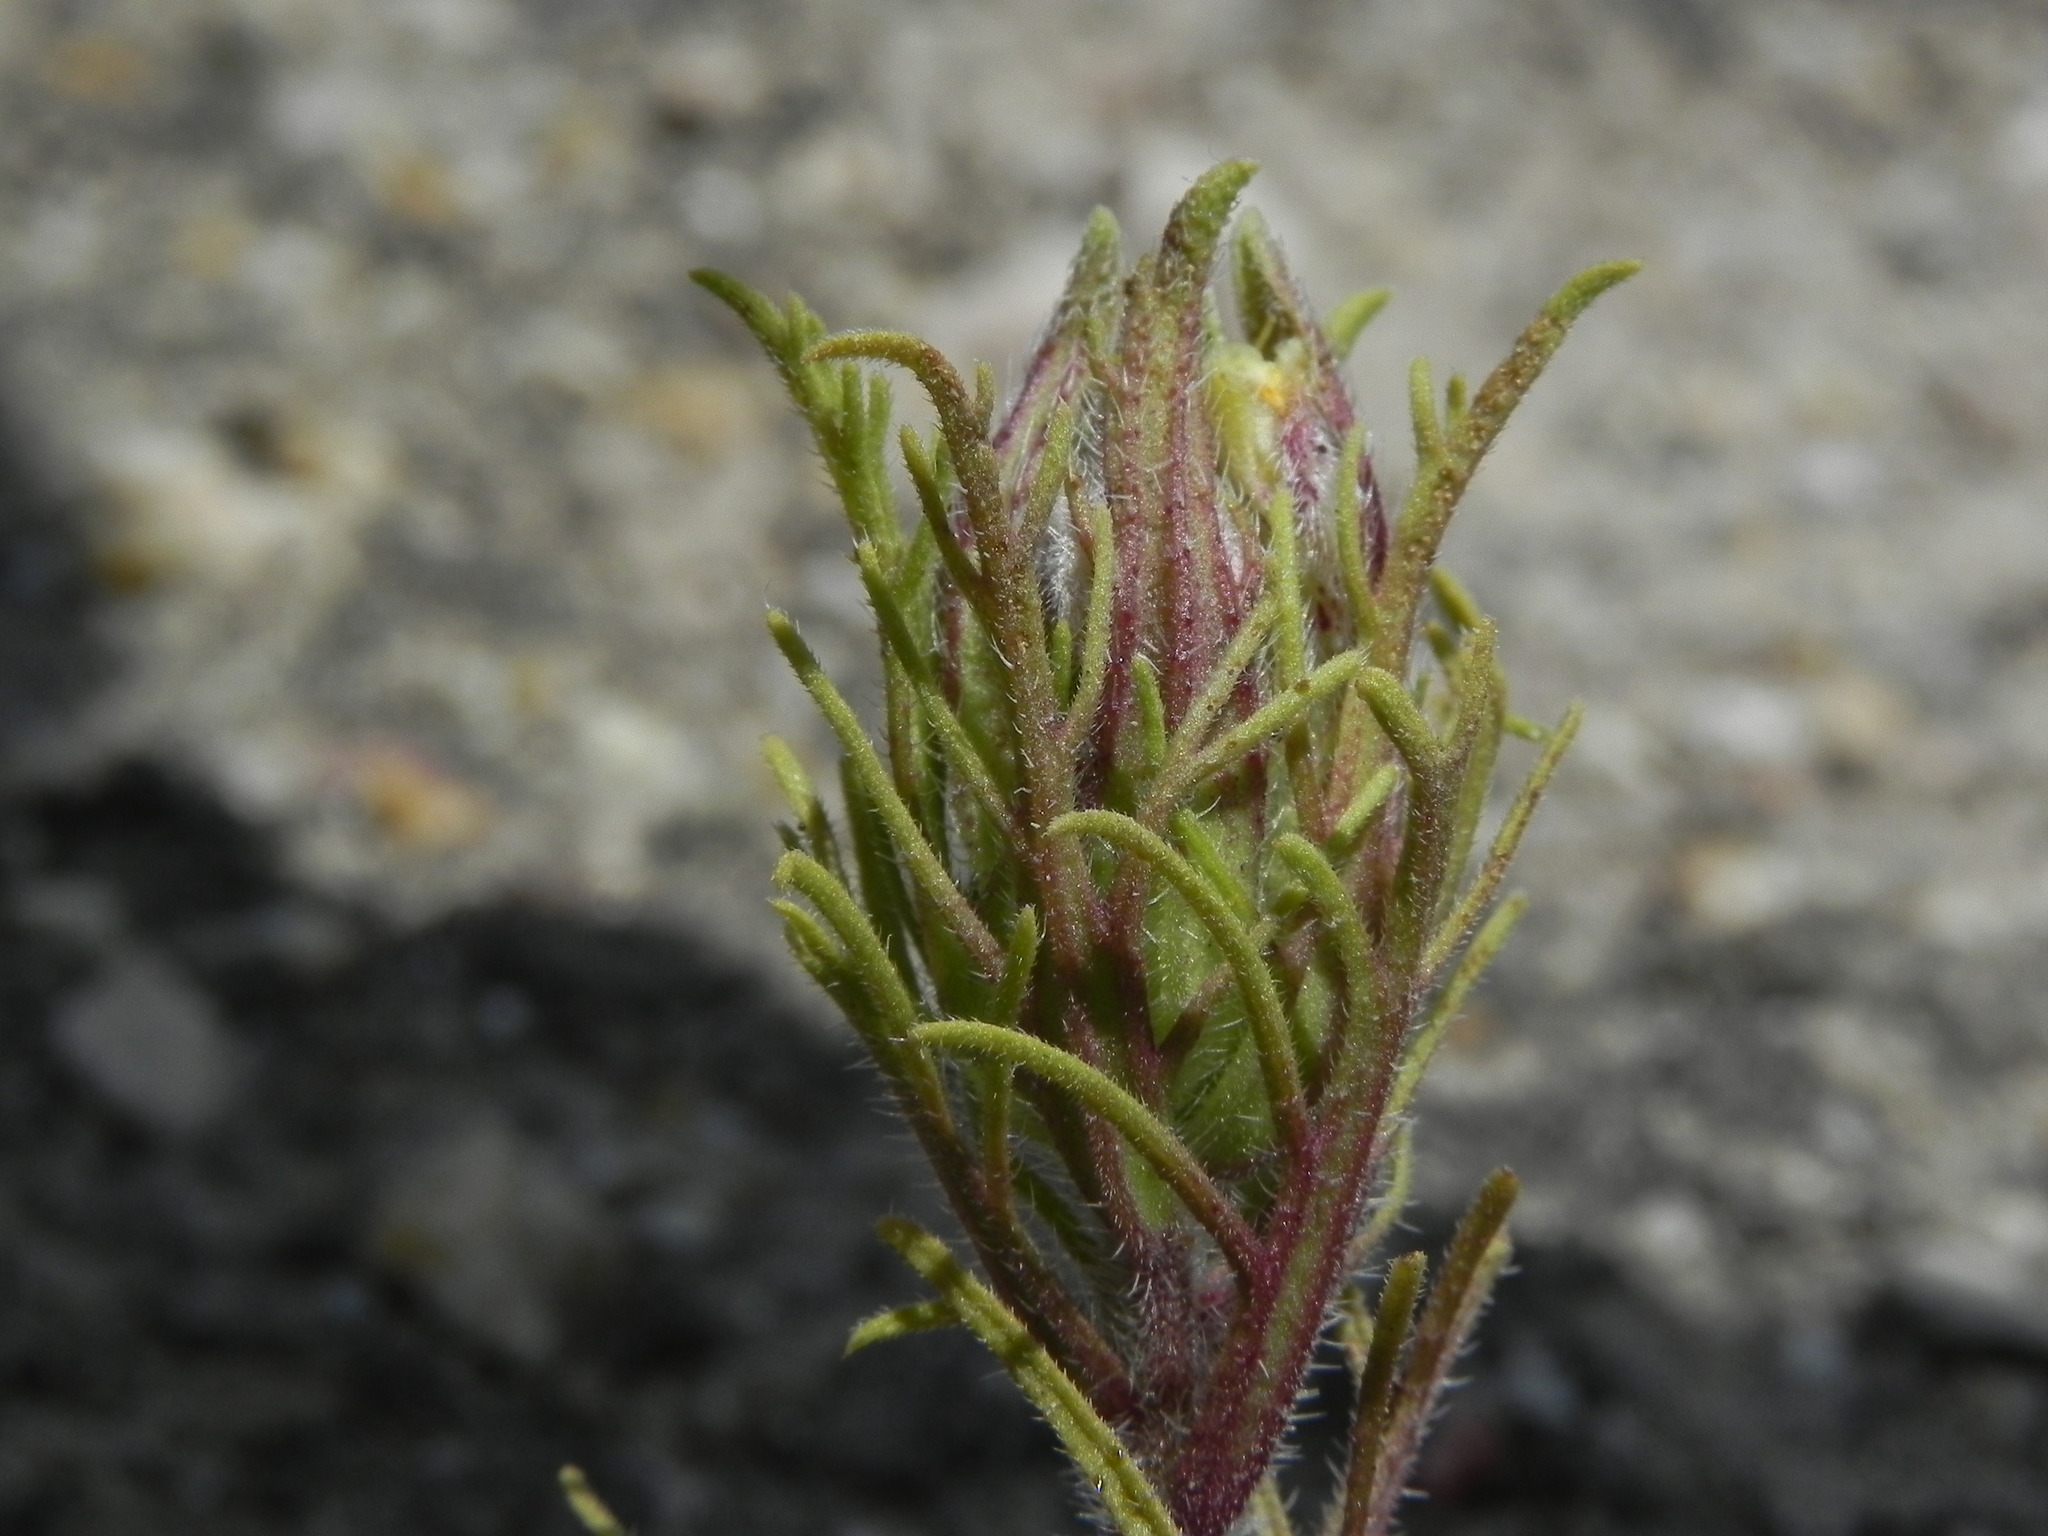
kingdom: Plantae
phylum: Tracheophyta
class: Magnoliopsida
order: Lamiales
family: Orobanchaceae
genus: Dicranostegia
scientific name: Dicranostegia orcuttiana
